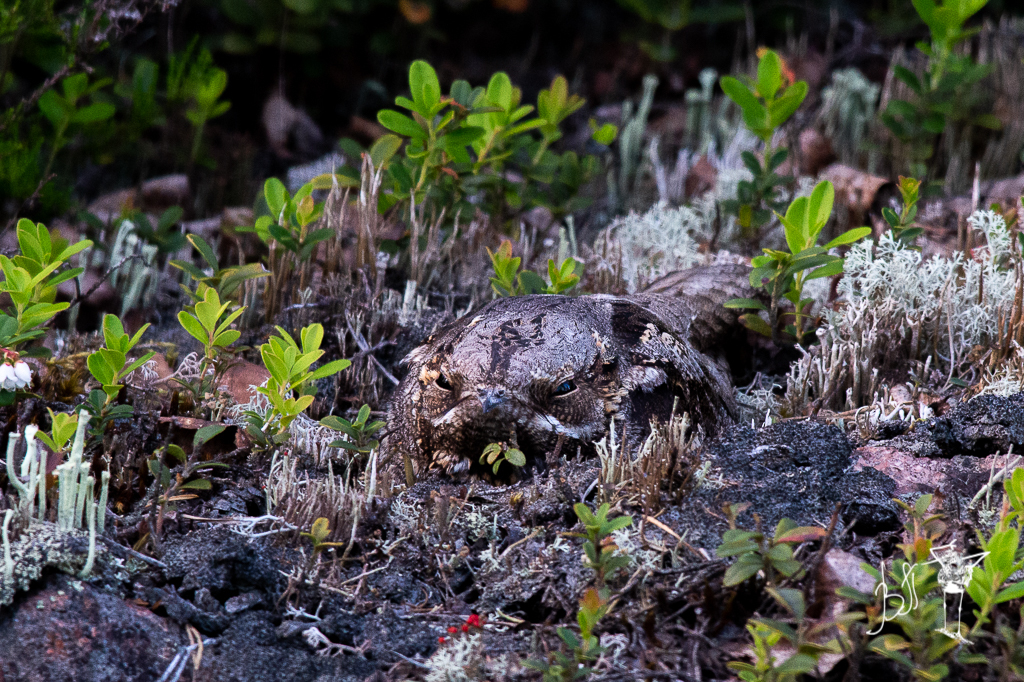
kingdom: Animalia
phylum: Chordata
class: Aves
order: Caprimulgiformes
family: Caprimulgidae
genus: Caprimulgus
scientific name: Caprimulgus europaeus
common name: European nightjar
